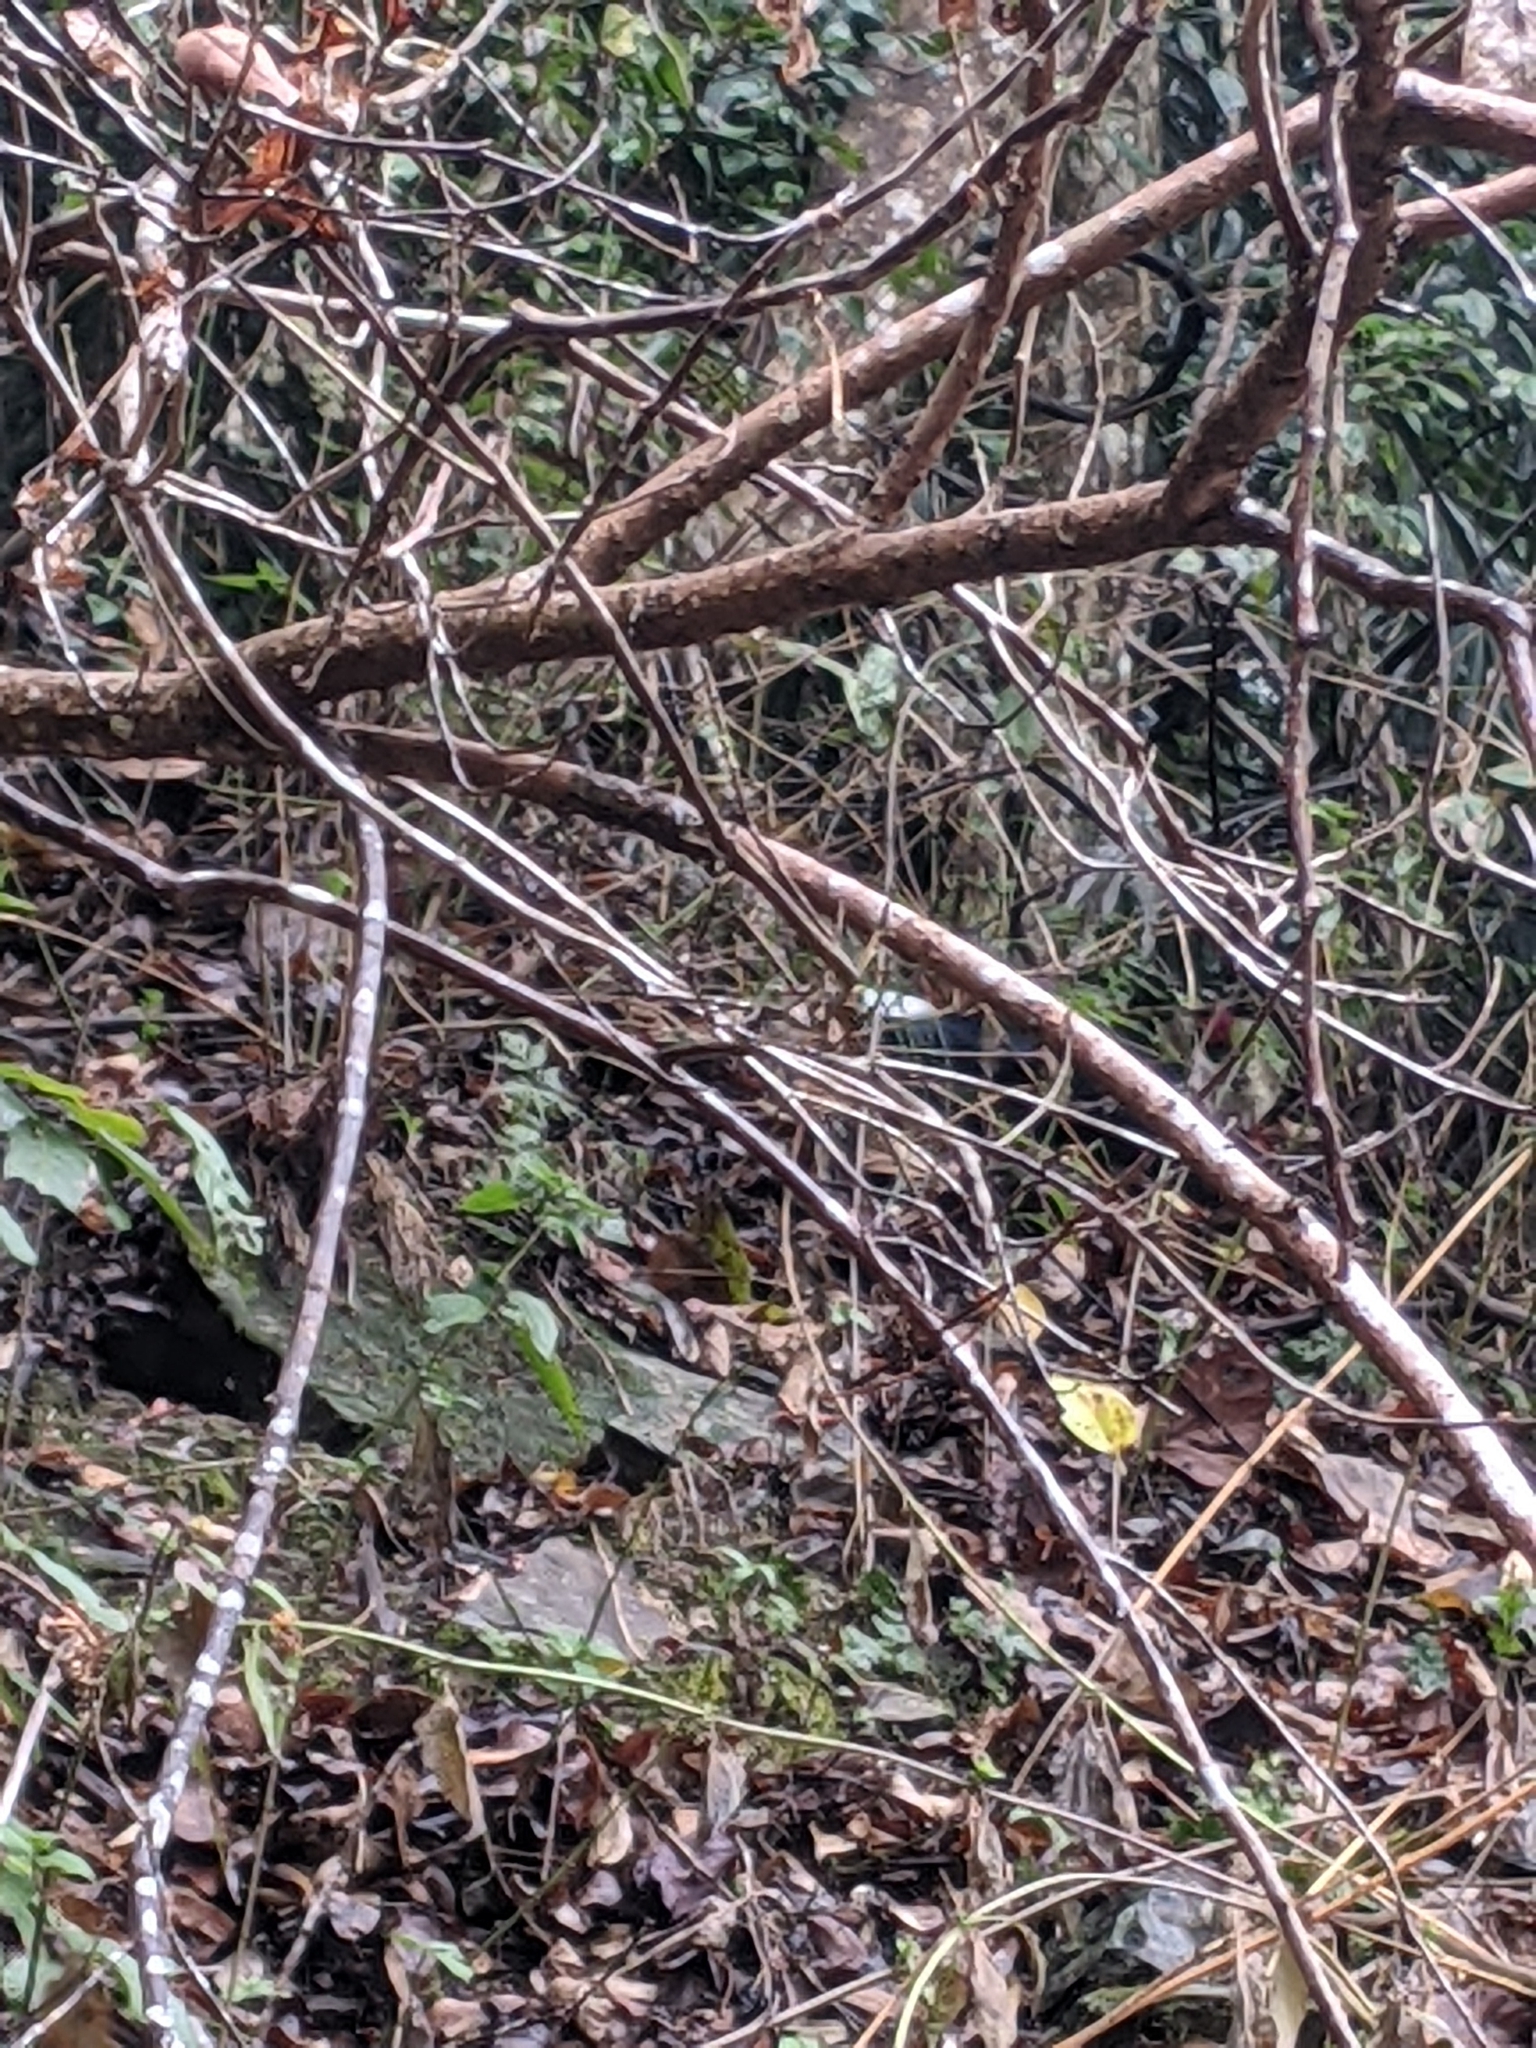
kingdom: Animalia
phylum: Chordata
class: Aves
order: Galliformes
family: Phasianidae
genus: Lophura
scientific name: Lophura swinhoii
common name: Swinhoe's pheasant
